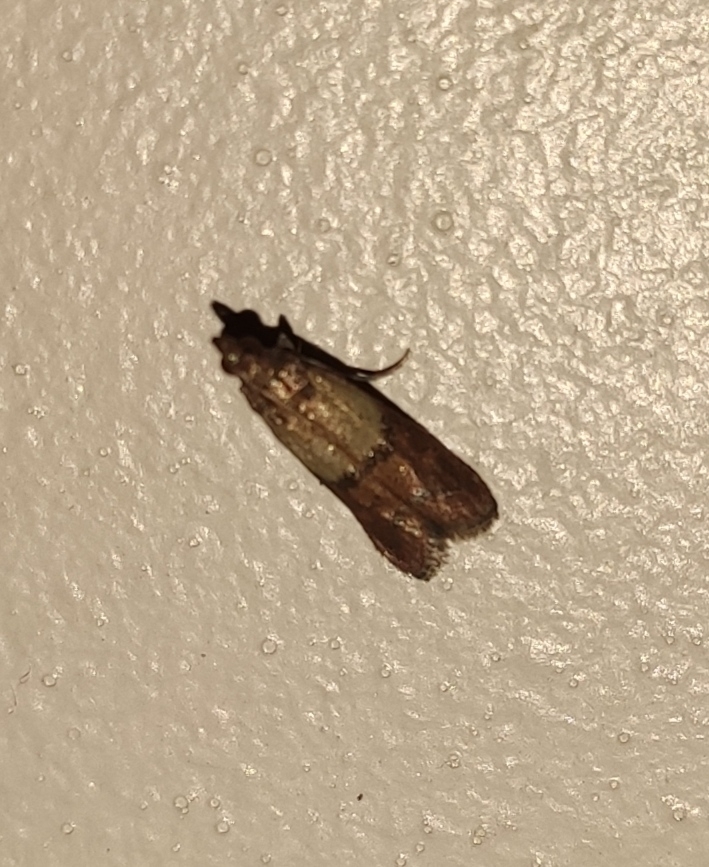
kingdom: Animalia
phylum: Arthropoda
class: Insecta
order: Lepidoptera
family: Pyralidae
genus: Plodia
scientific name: Plodia interpunctella
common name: Indian meal moth
